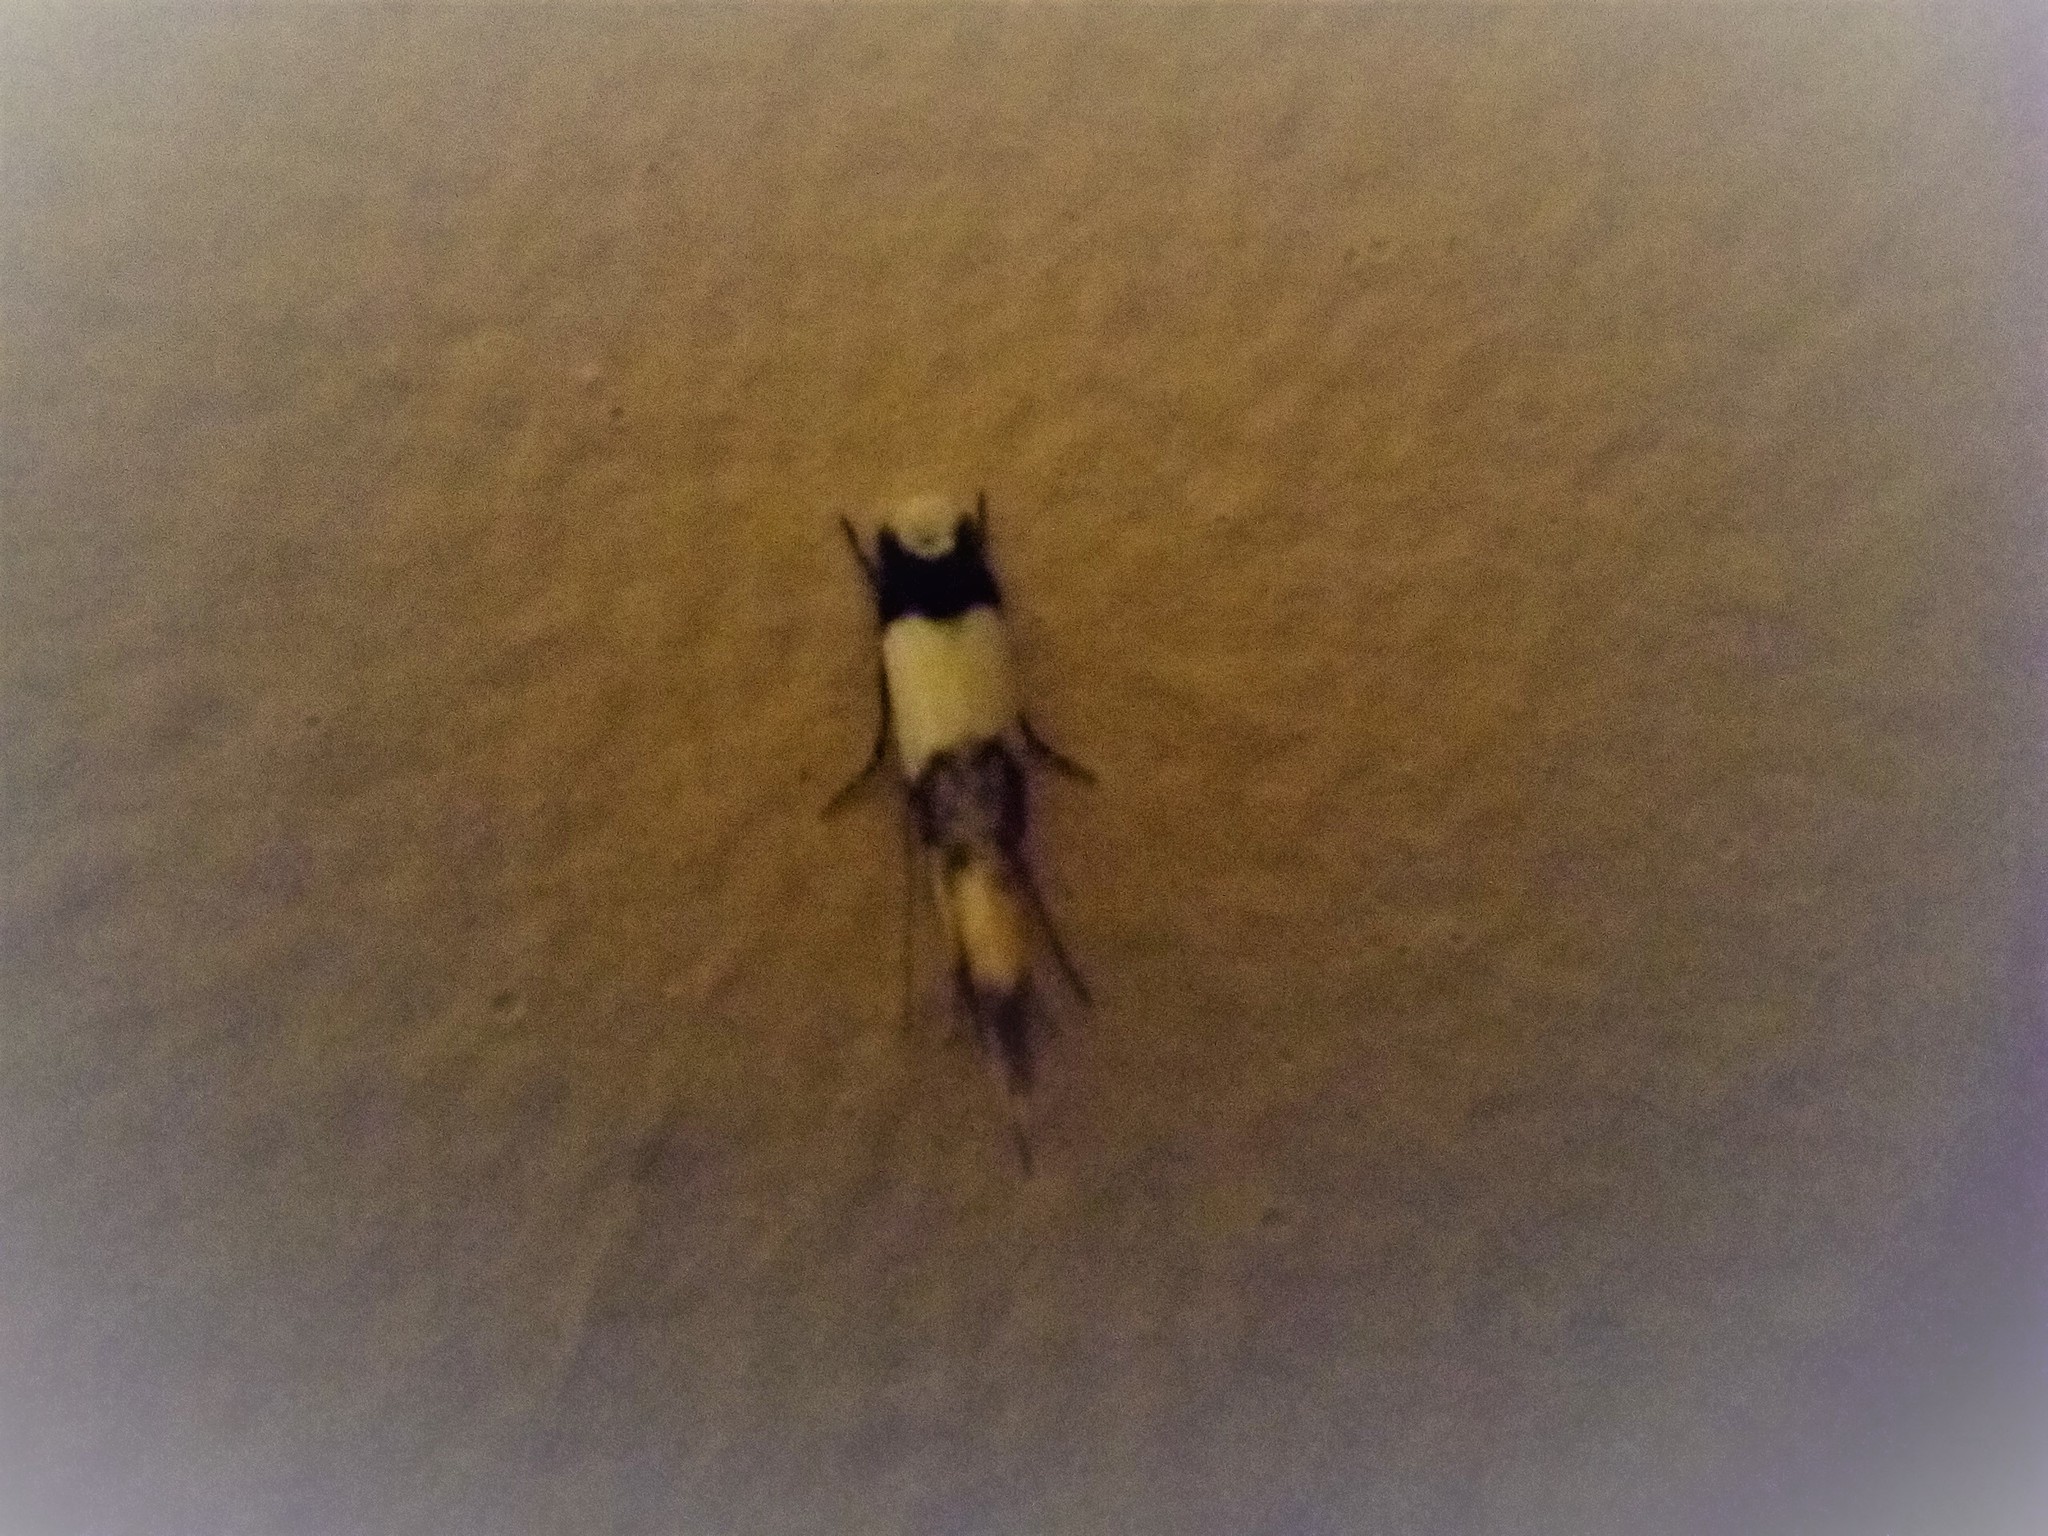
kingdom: Animalia
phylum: Arthropoda
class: Insecta
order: Lepidoptera
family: Tineidae
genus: Monopis
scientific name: Monopis icterogastra
